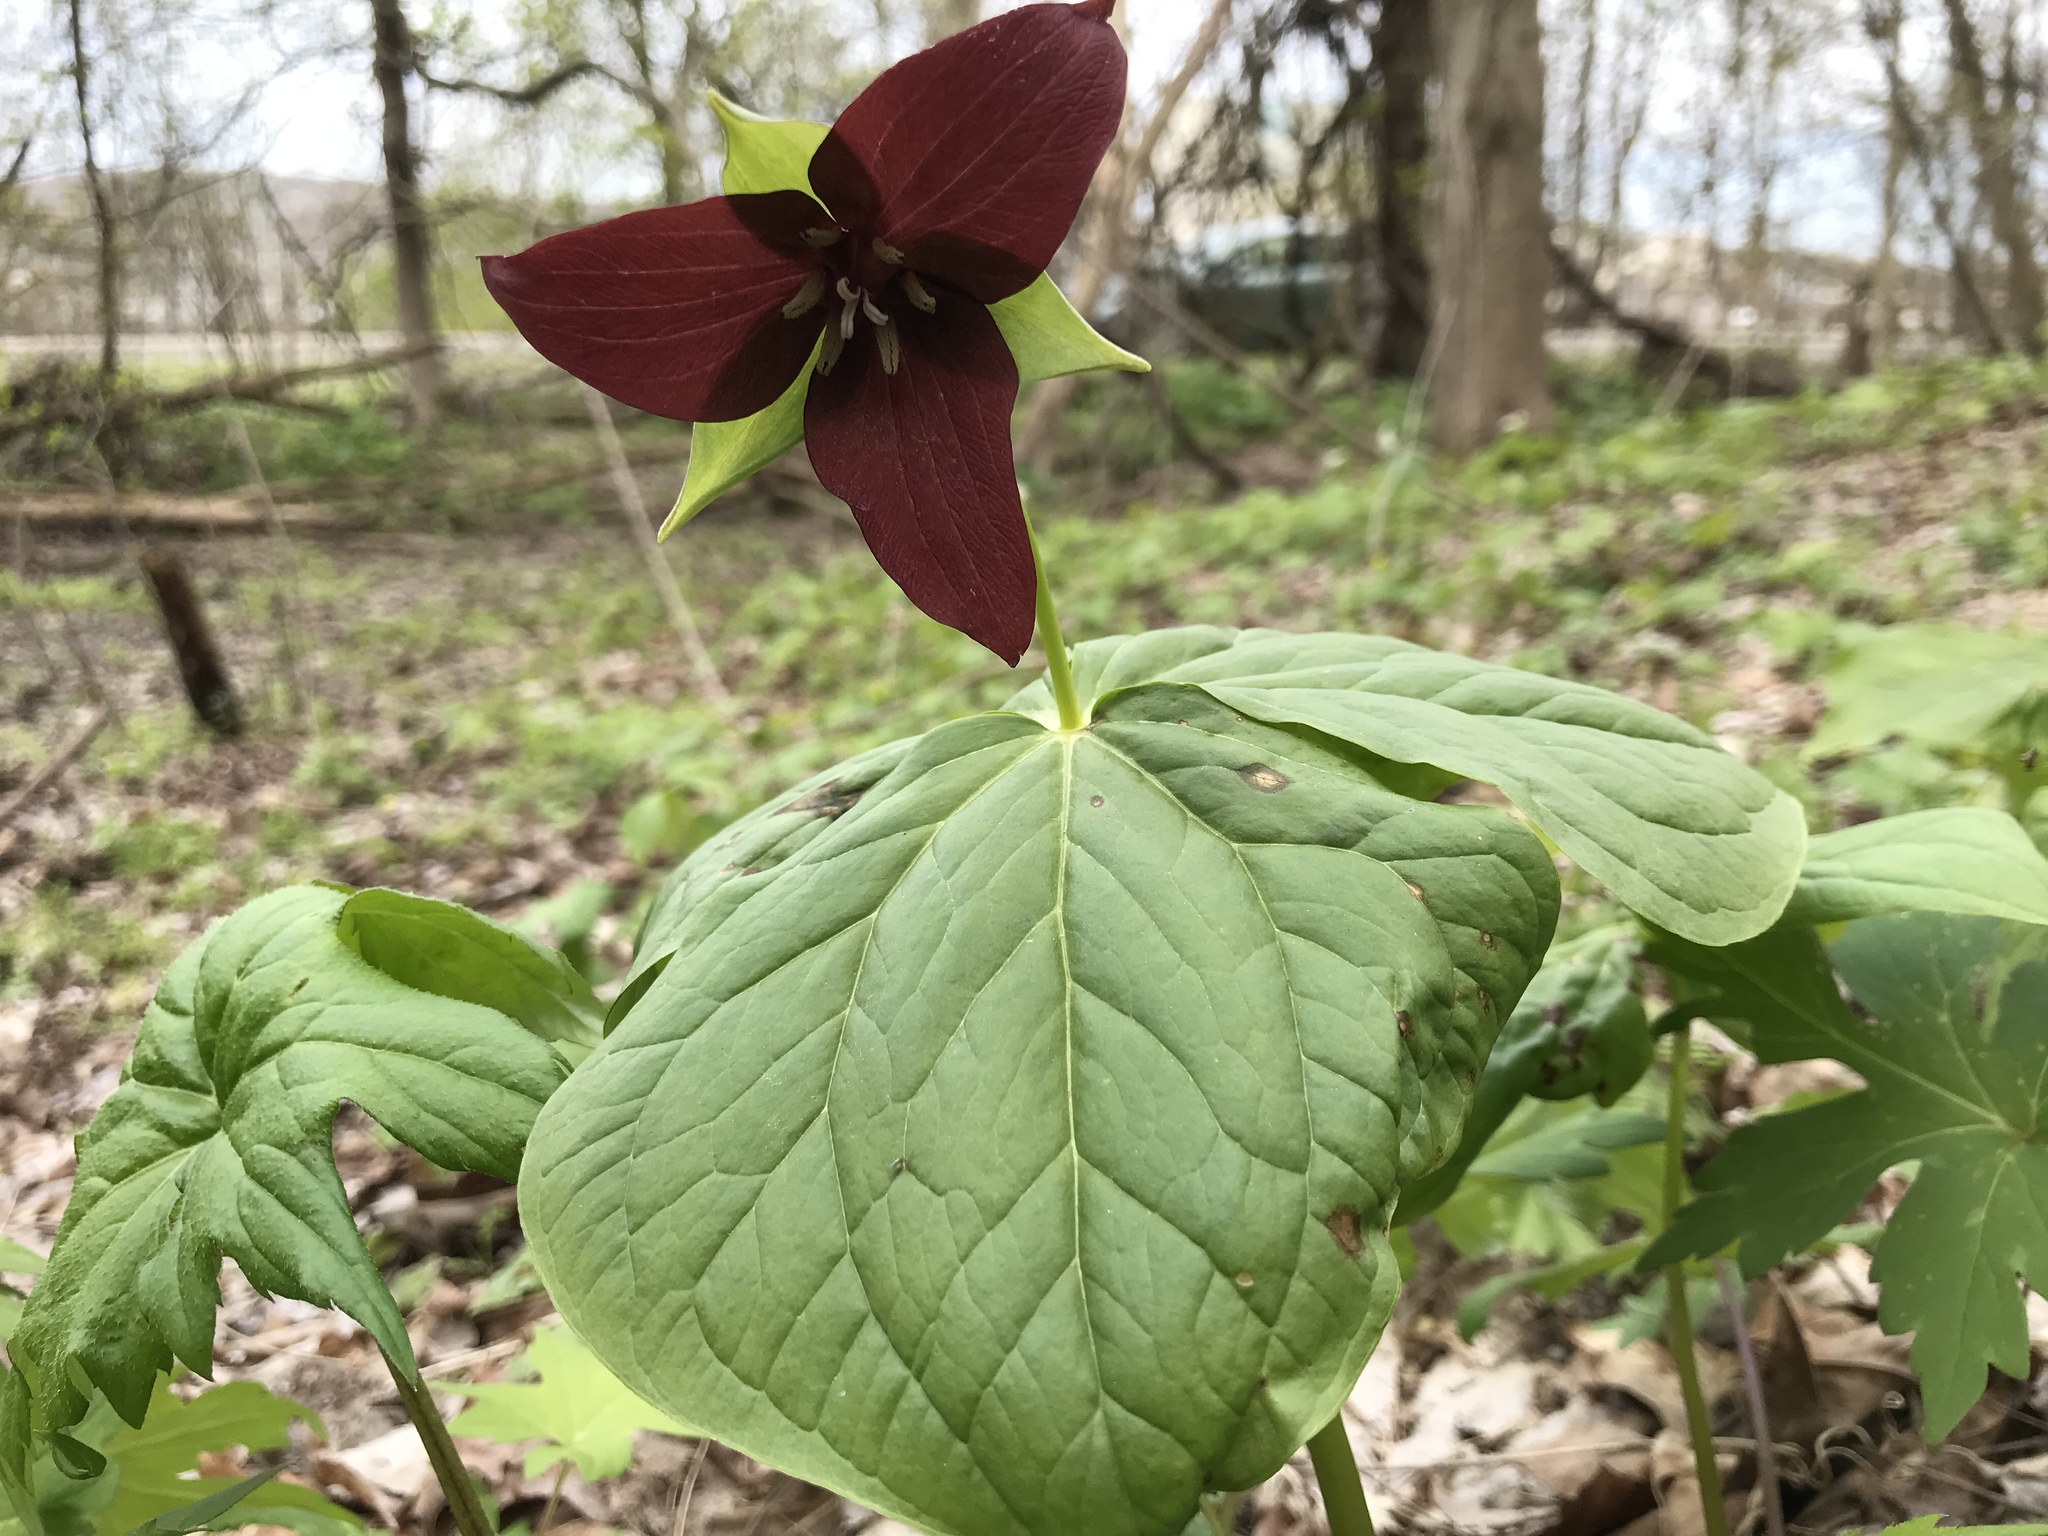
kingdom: Plantae
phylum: Tracheophyta
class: Liliopsida
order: Liliales
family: Melanthiaceae
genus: Trillium
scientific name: Trillium erectum
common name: Purple trillium
